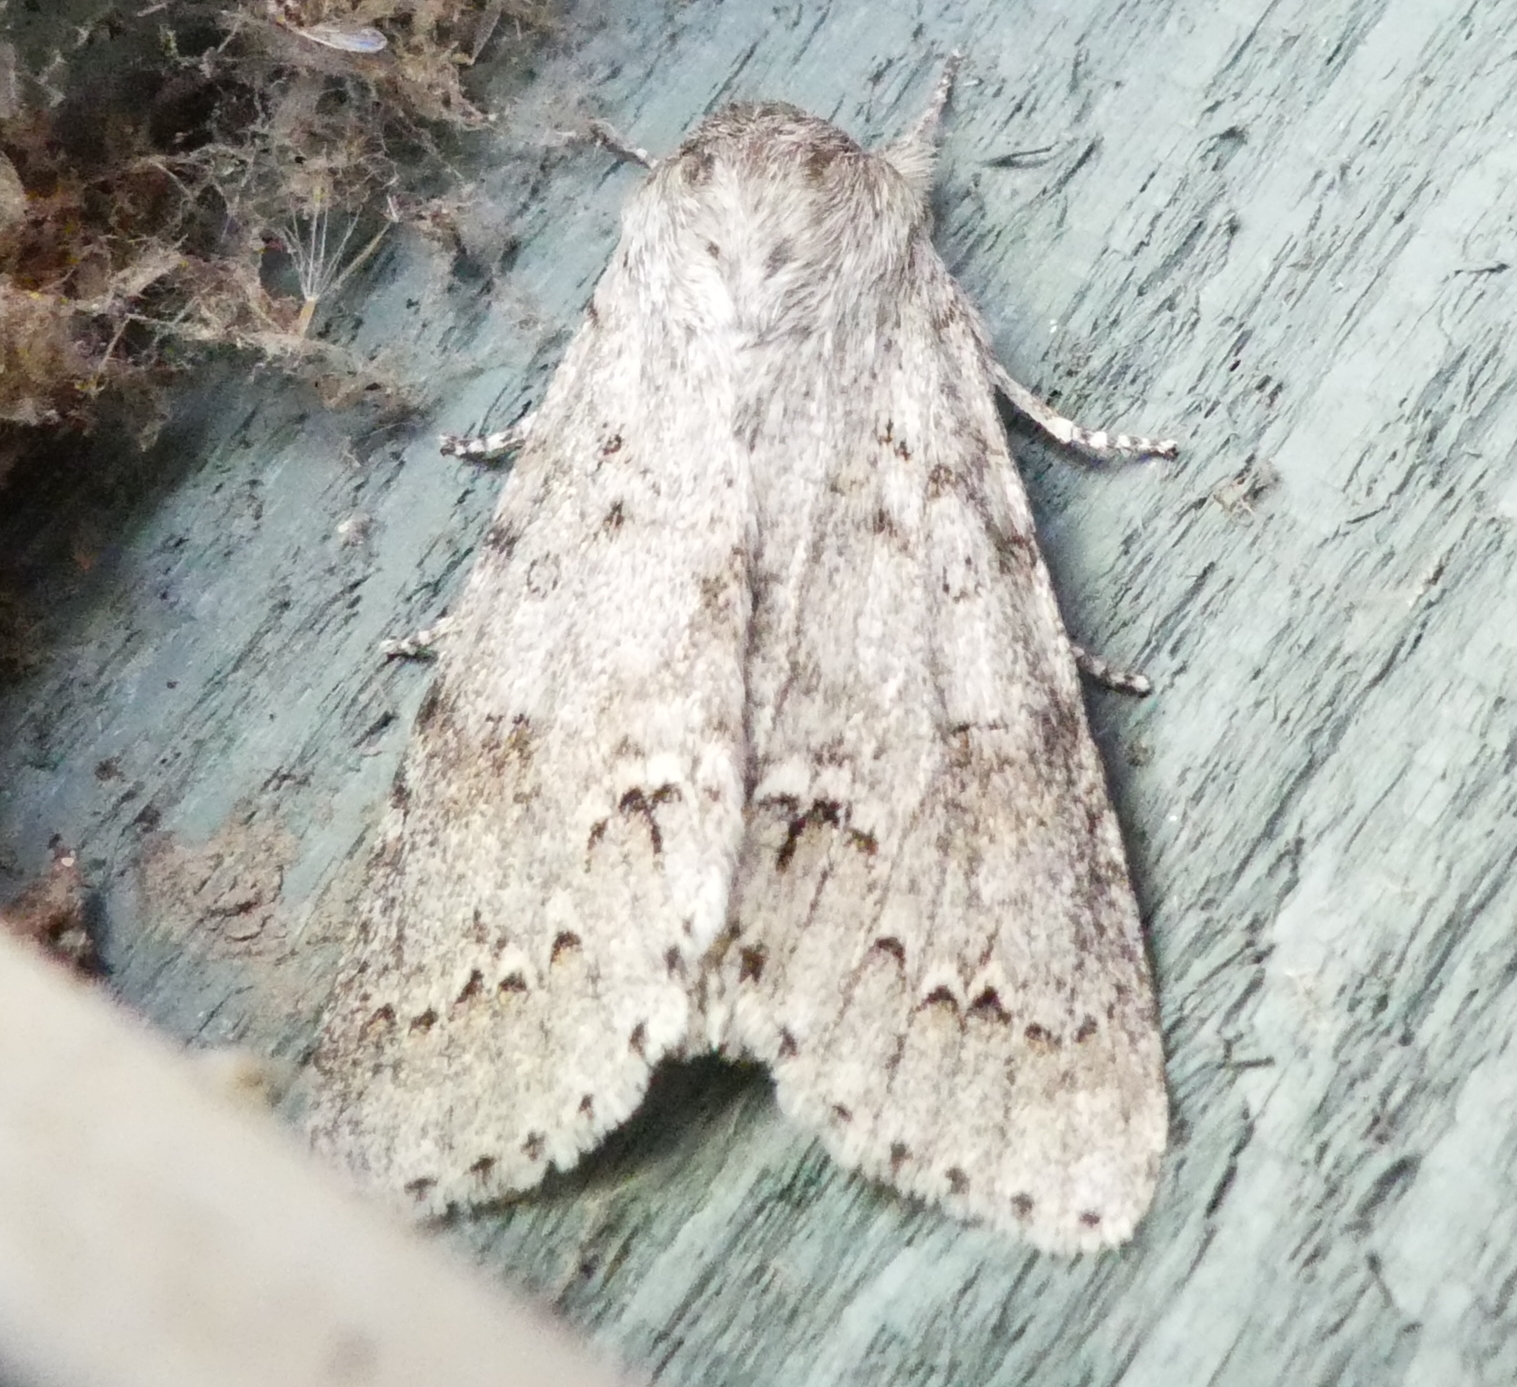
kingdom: Animalia
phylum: Arthropoda
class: Insecta
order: Lepidoptera
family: Noctuidae
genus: Acronicta
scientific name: Acronicta insita
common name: Large gray dagger
